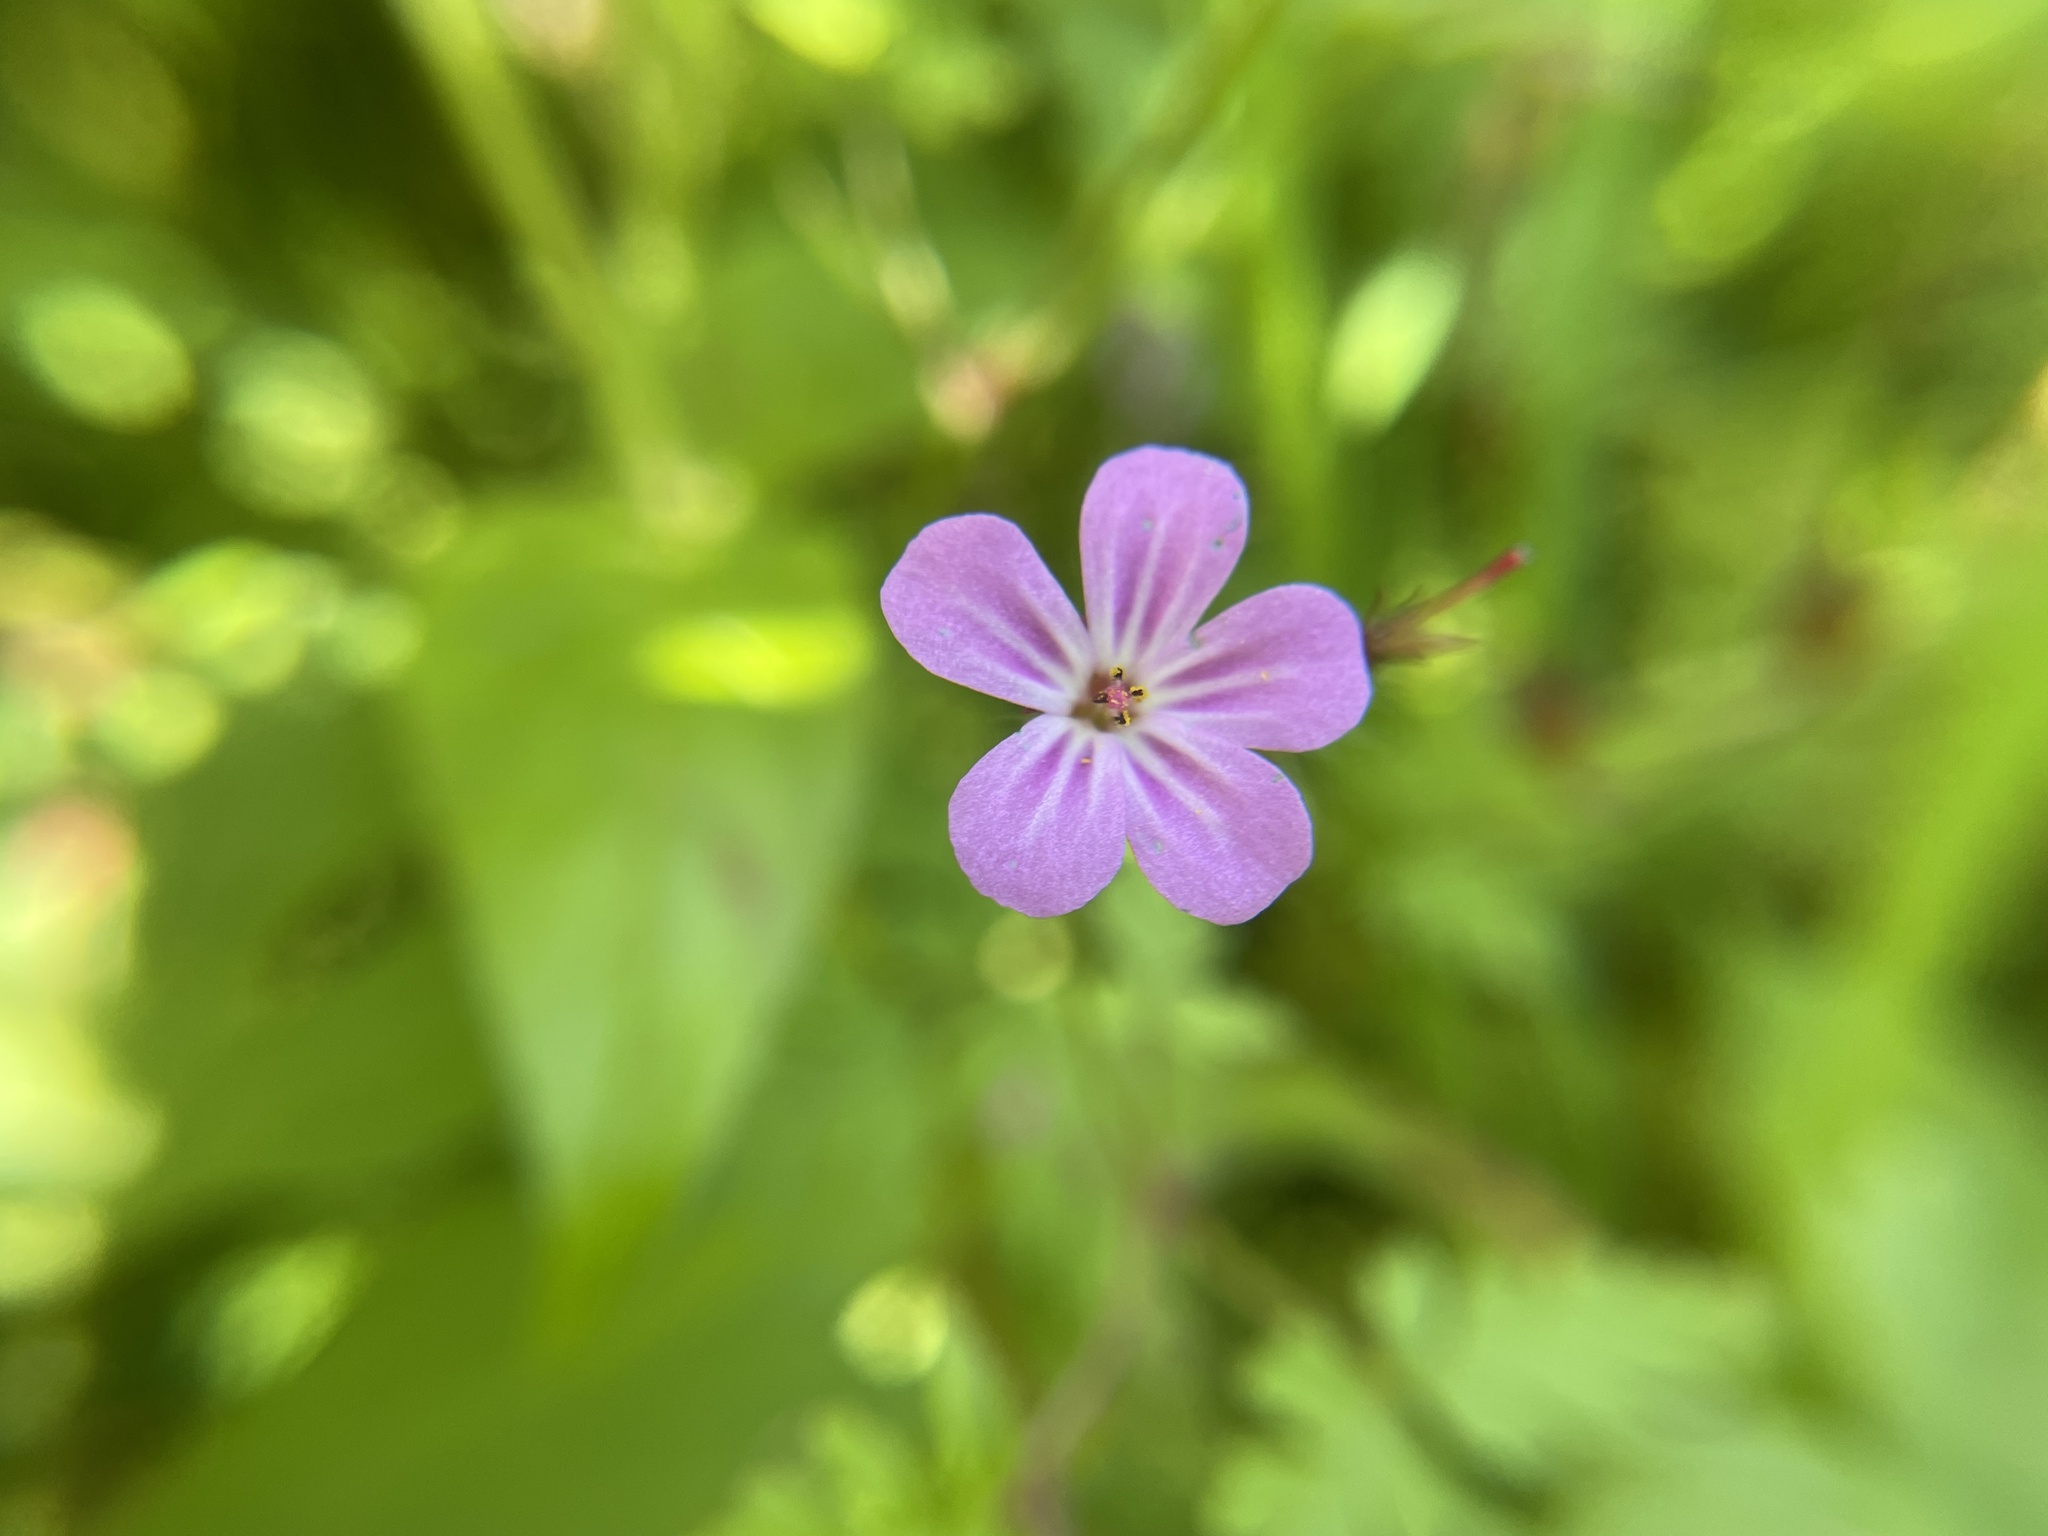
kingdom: Plantae
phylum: Tracheophyta
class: Magnoliopsida
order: Geraniales
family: Geraniaceae
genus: Geranium
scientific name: Geranium robertianum
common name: Herb-robert
